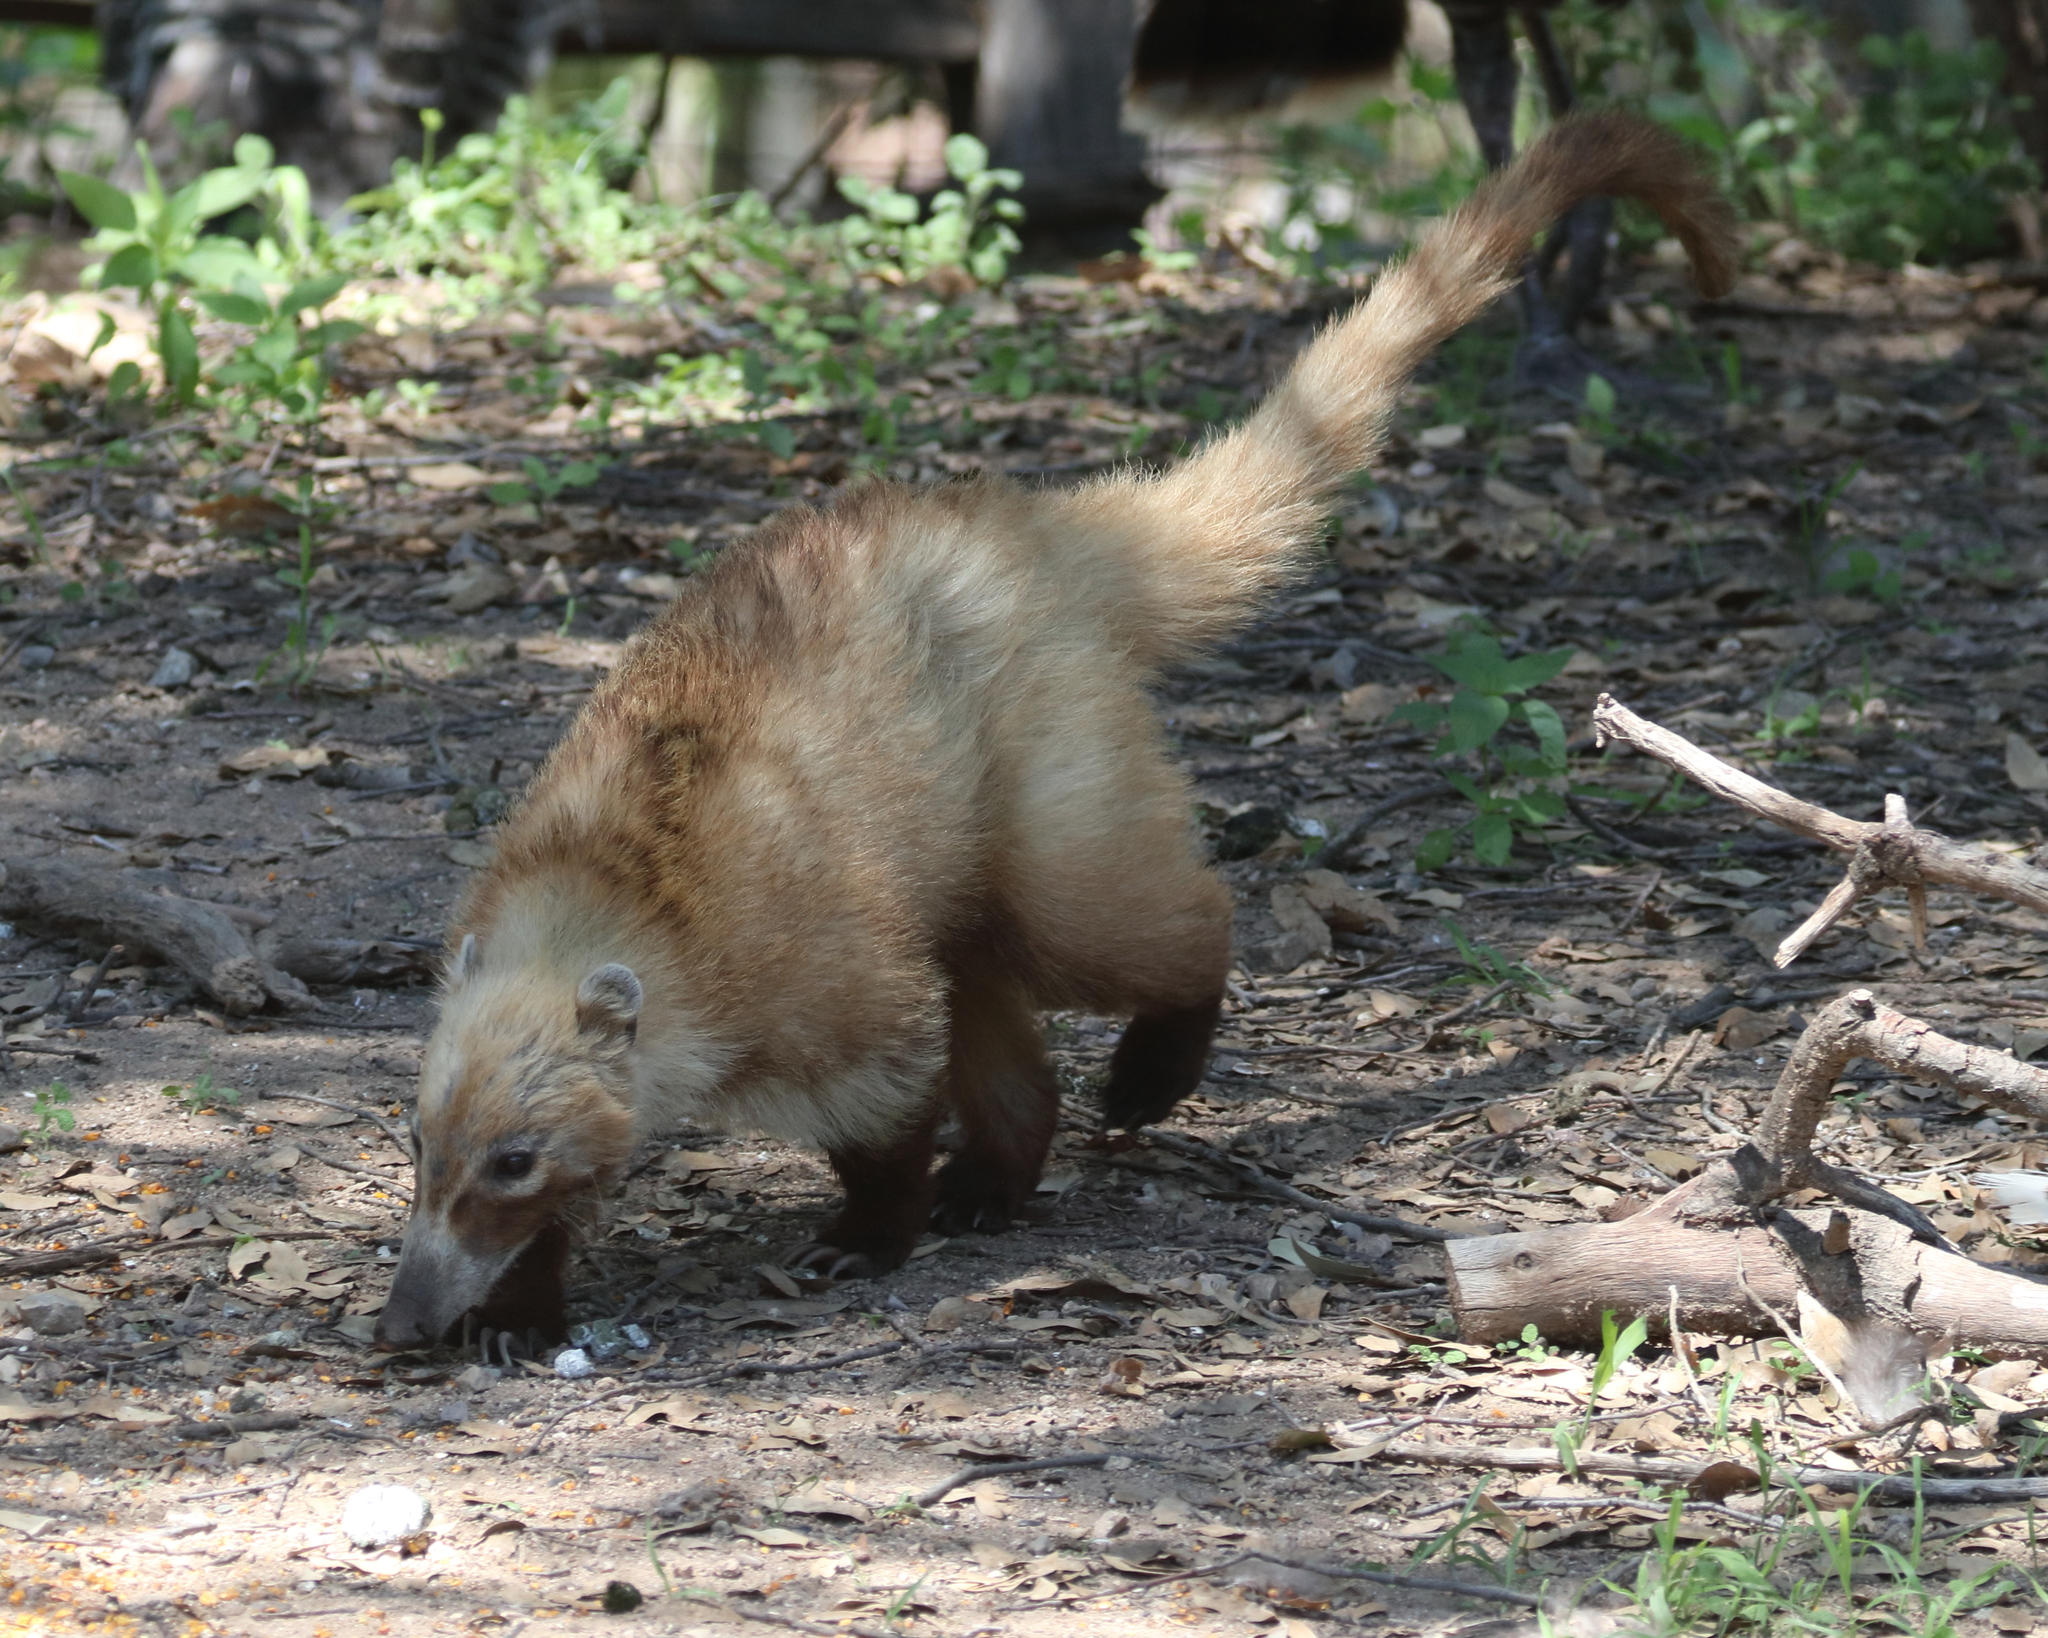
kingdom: Animalia
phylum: Chordata
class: Mammalia
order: Carnivora
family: Procyonidae
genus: Nasua
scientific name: Nasua narica
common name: White-nosed coati
